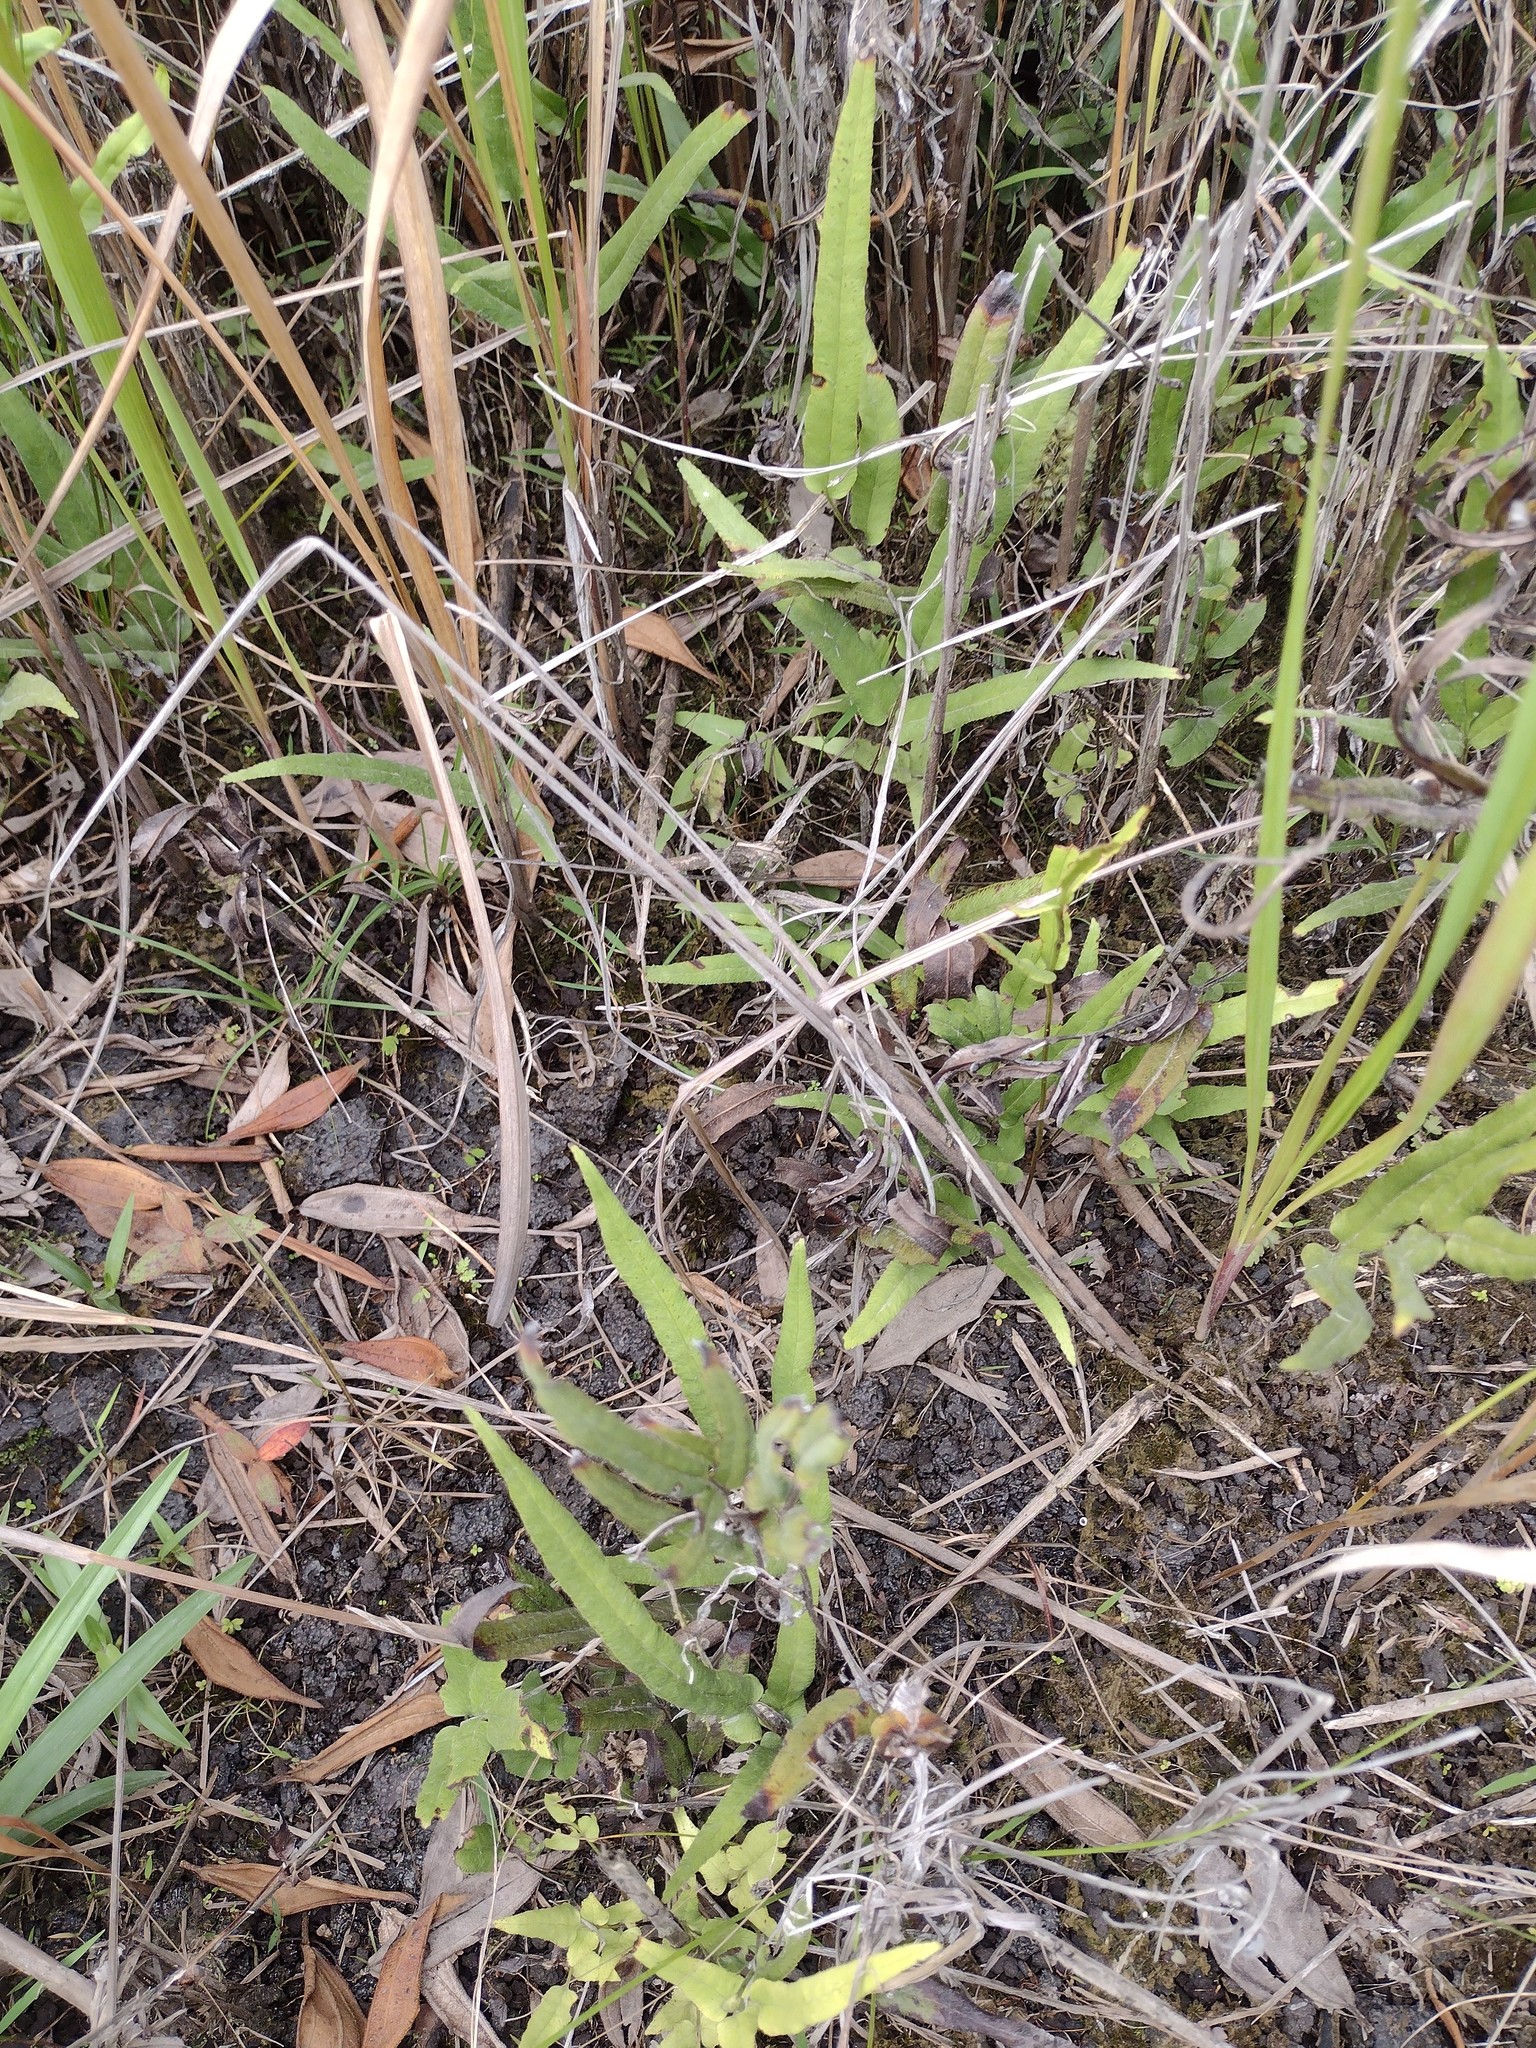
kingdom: Plantae
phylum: Tracheophyta
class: Polypodiopsida
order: Polypodiales
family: Lindsaeaceae
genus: Lindsaea
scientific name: Lindsaea ensifolia
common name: Graceful necklace fern
